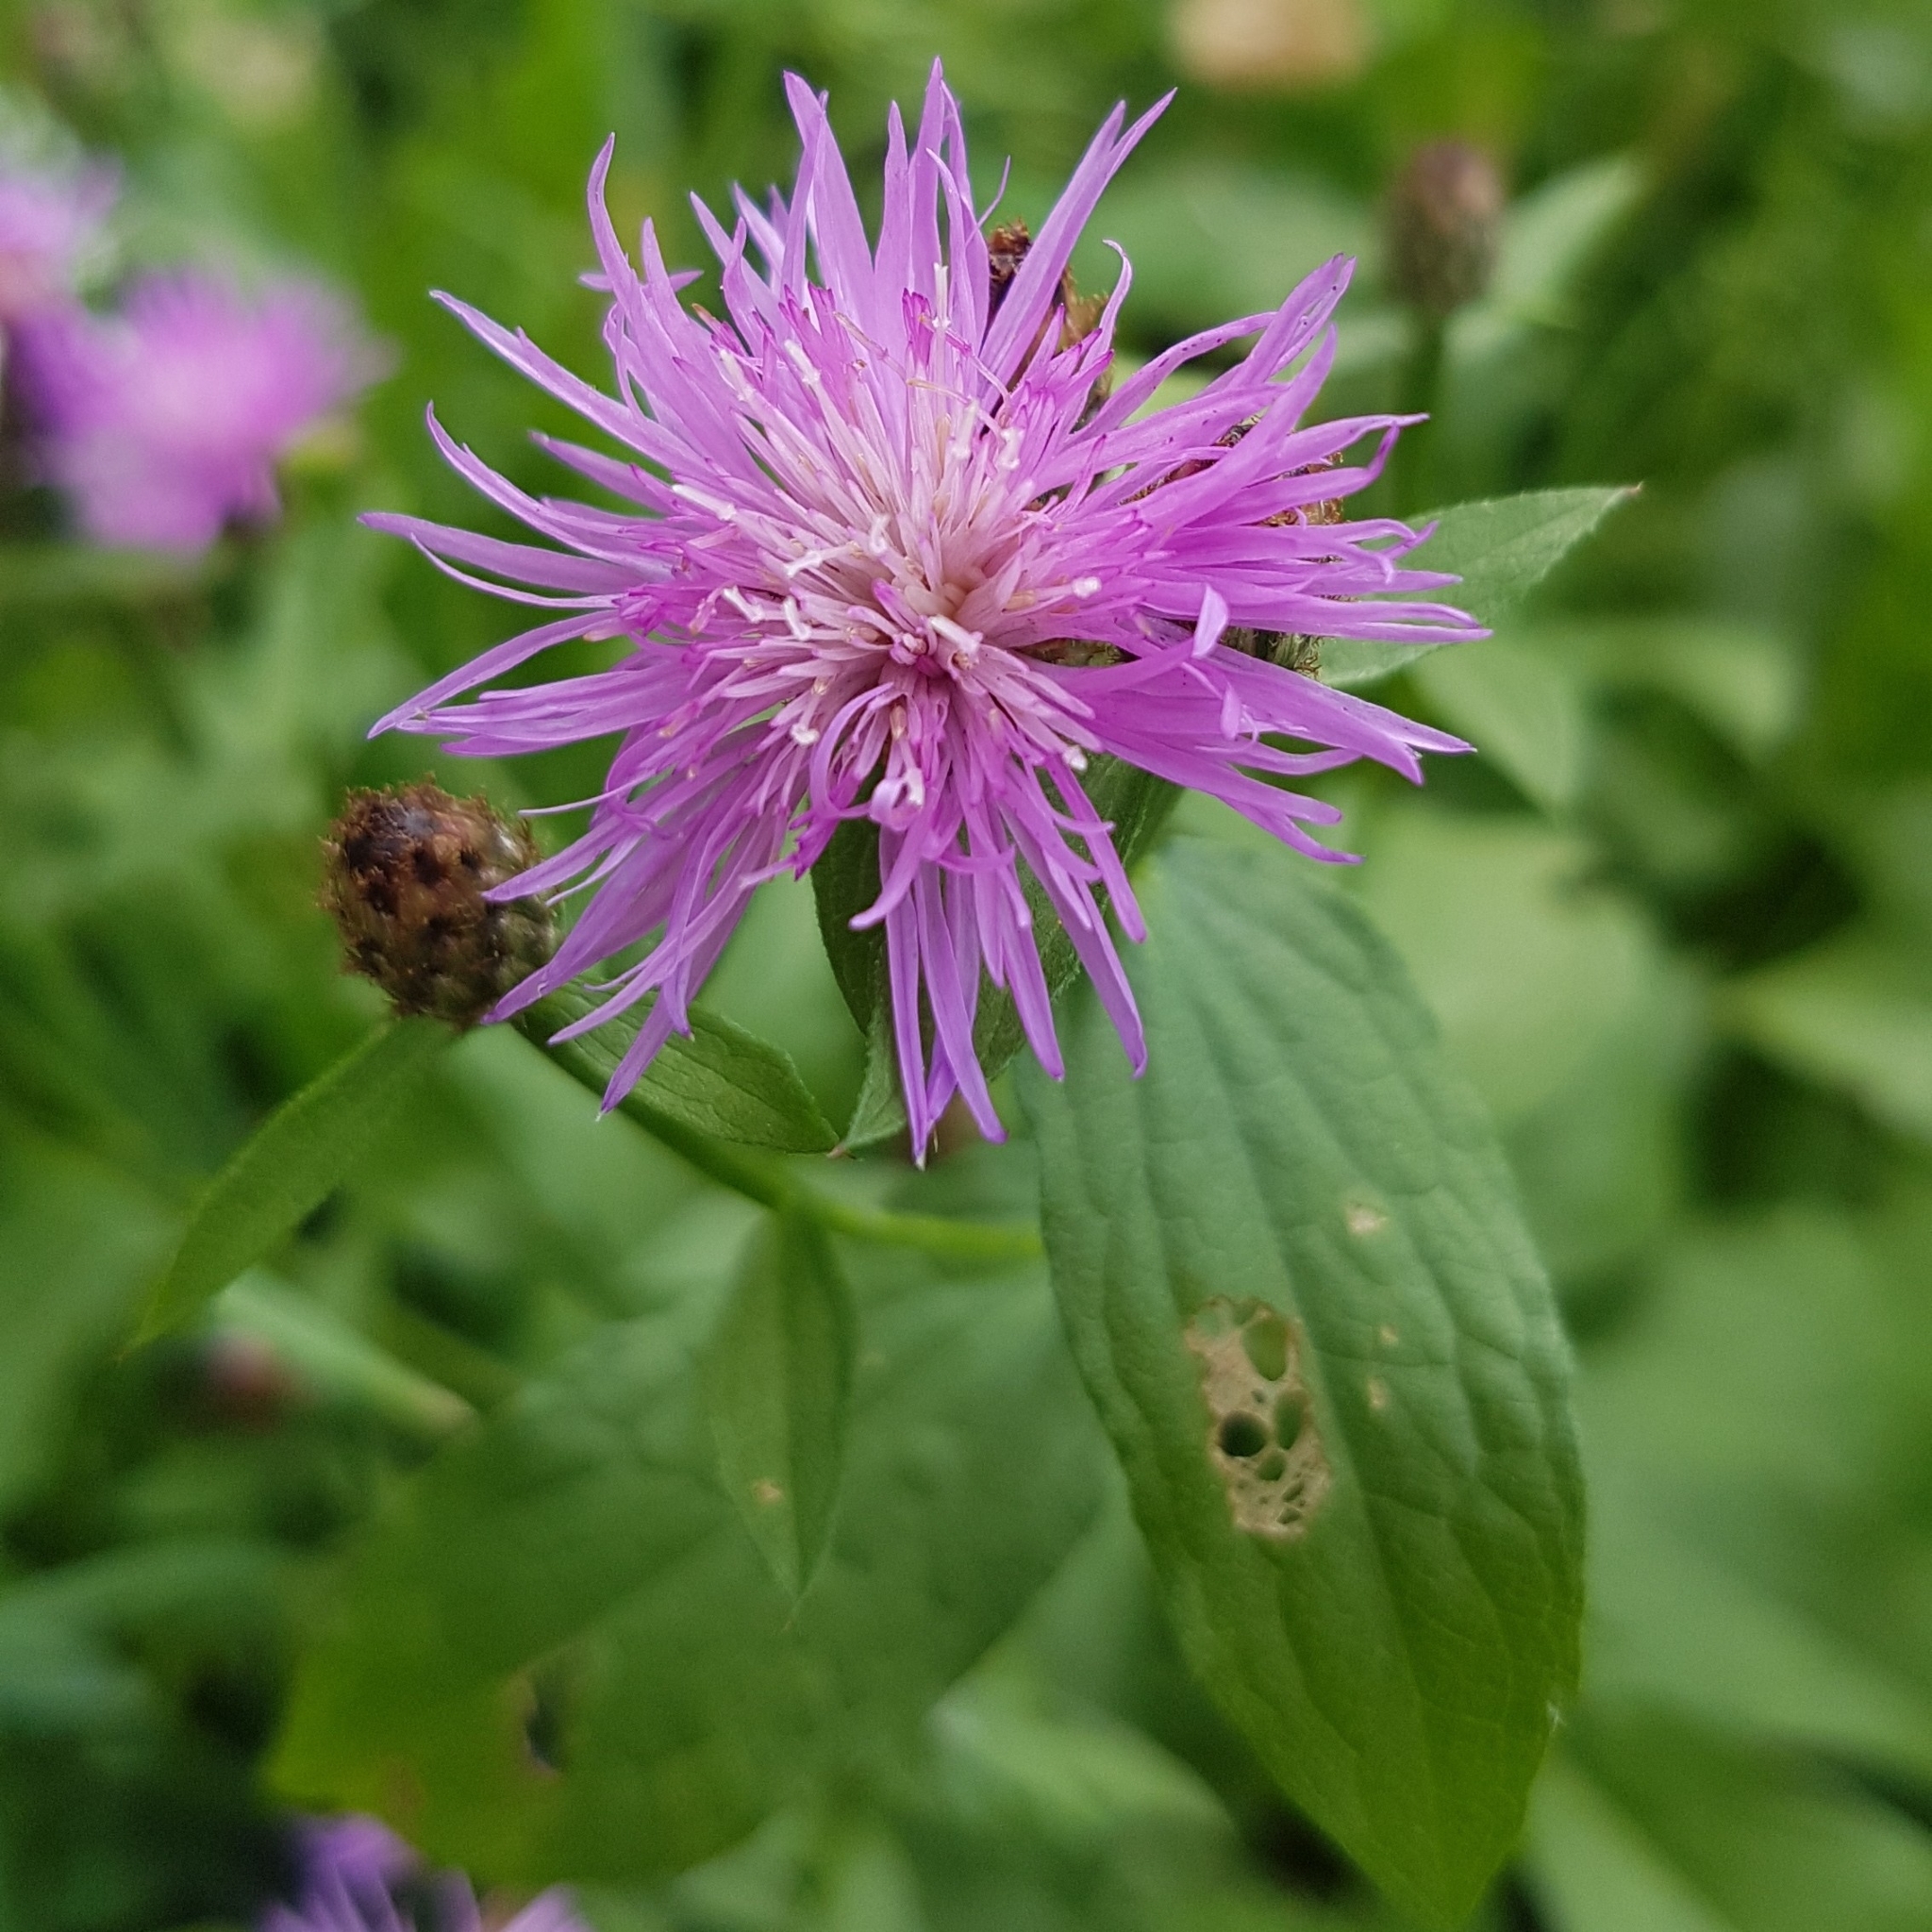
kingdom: Plantae
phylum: Tracheophyta
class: Magnoliopsida
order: Asterales
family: Asteraceae
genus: Centaurea
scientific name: Centaurea nigrescens
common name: Tyrol knapweed
